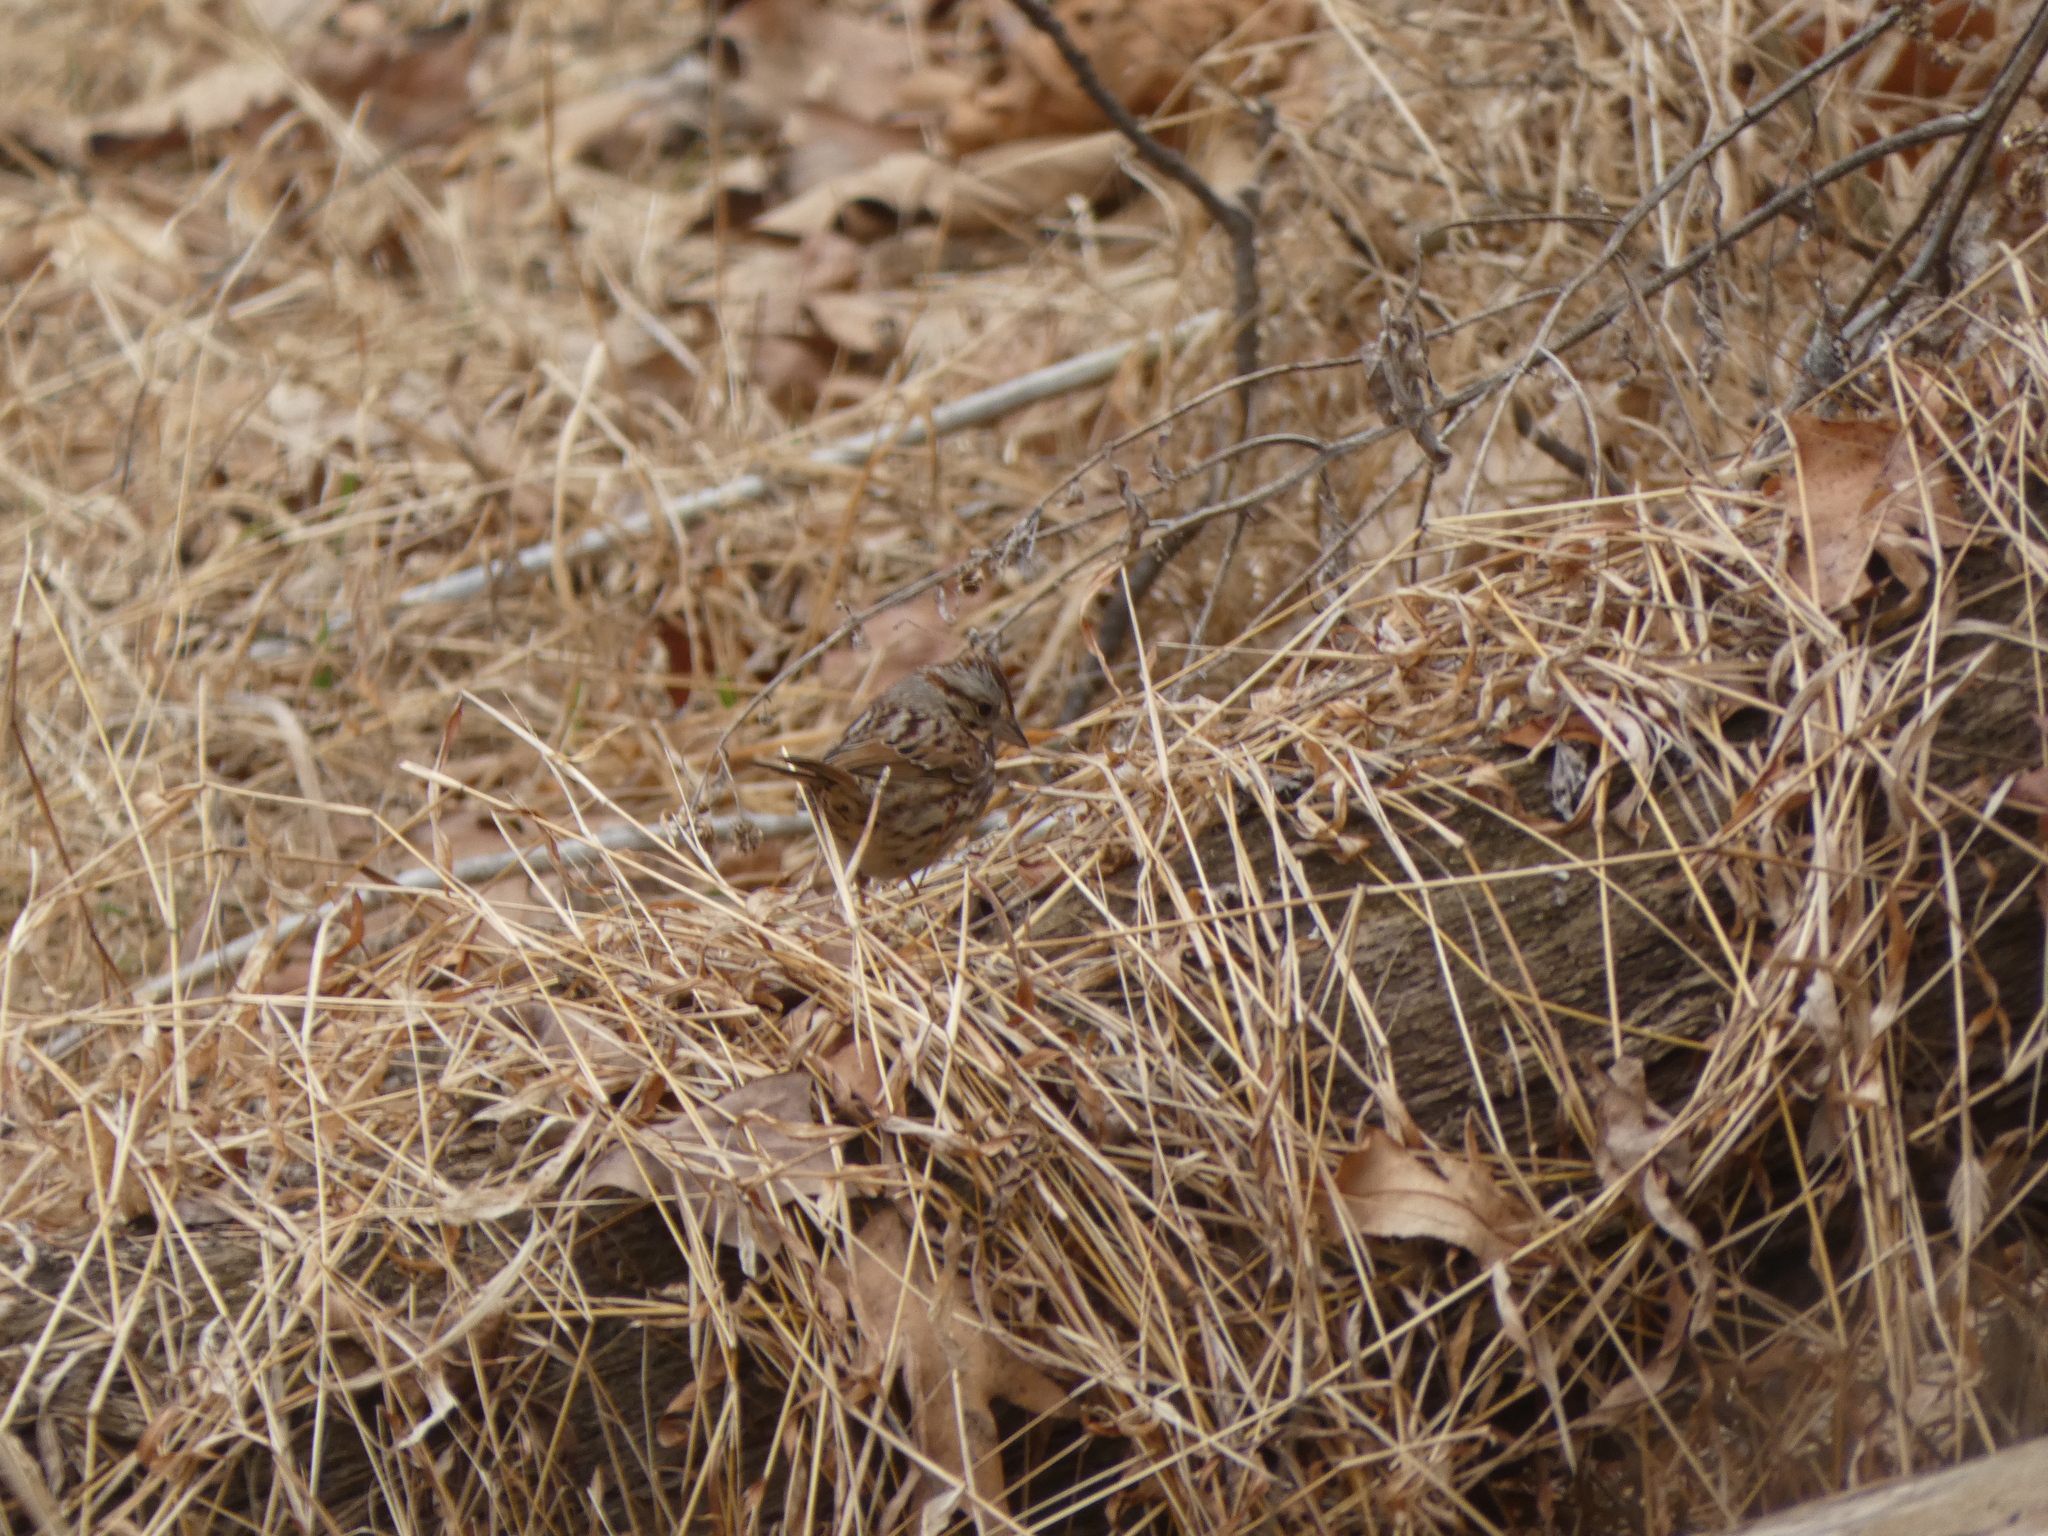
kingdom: Animalia
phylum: Chordata
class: Aves
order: Passeriformes
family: Passerellidae
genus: Melospiza
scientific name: Melospiza melodia
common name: Song sparrow
